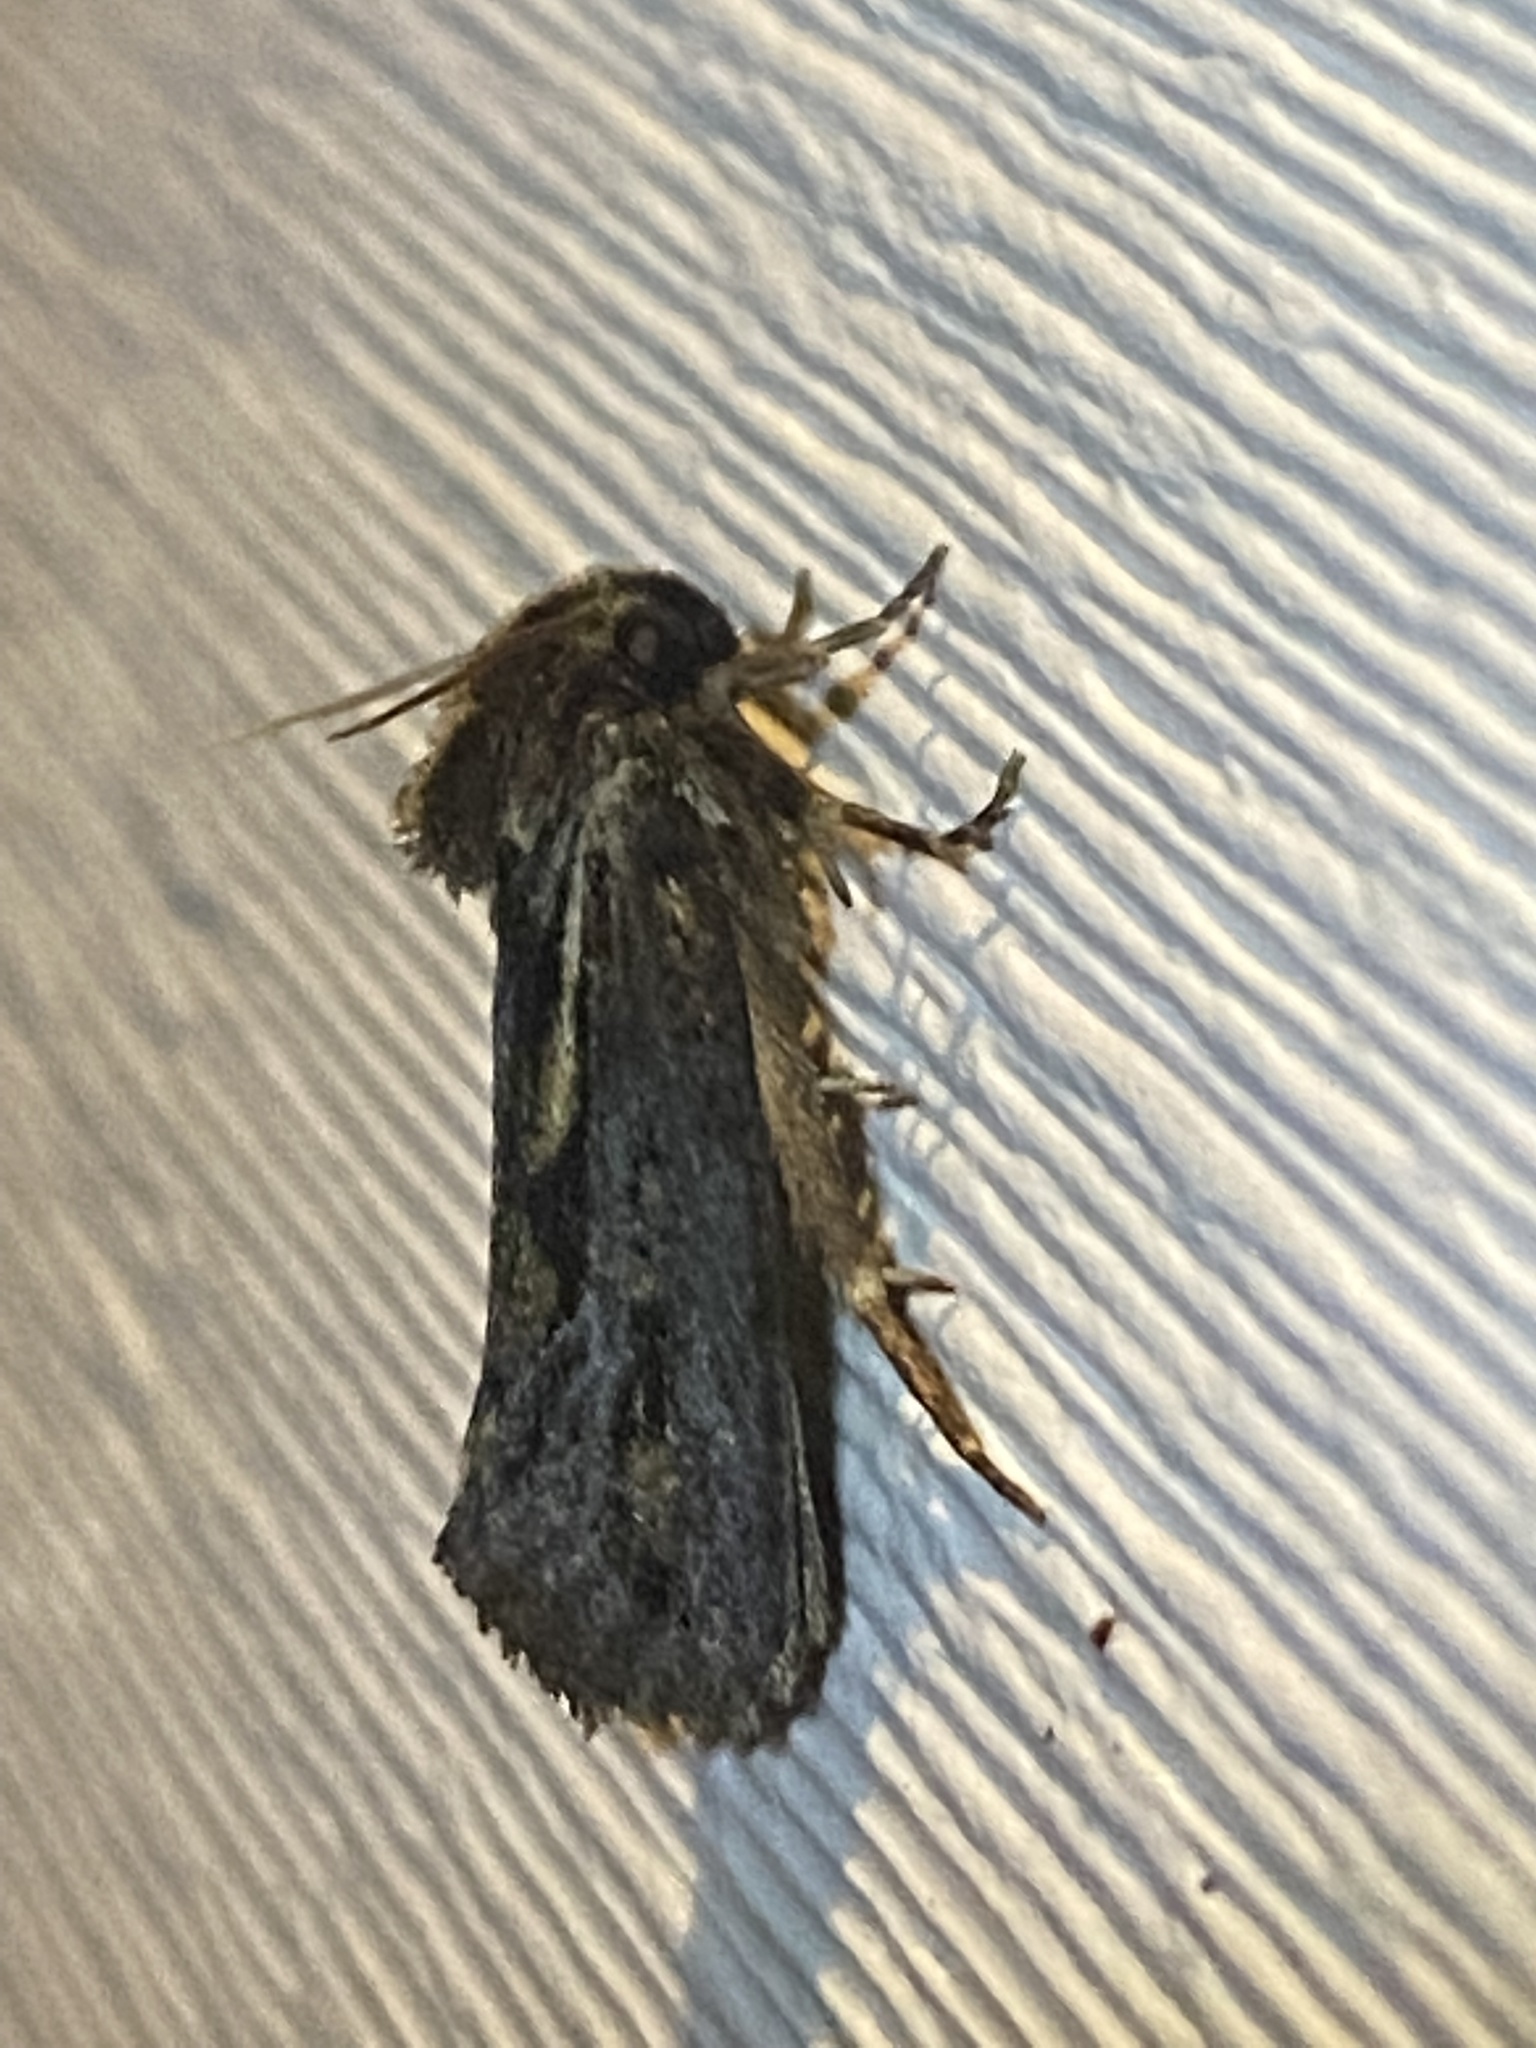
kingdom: Animalia
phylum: Arthropoda
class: Insecta
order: Lepidoptera
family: Tineidae
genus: Acrolophus
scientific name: Acrolophus popeanella
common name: Clemens' grass tubeworm moth
